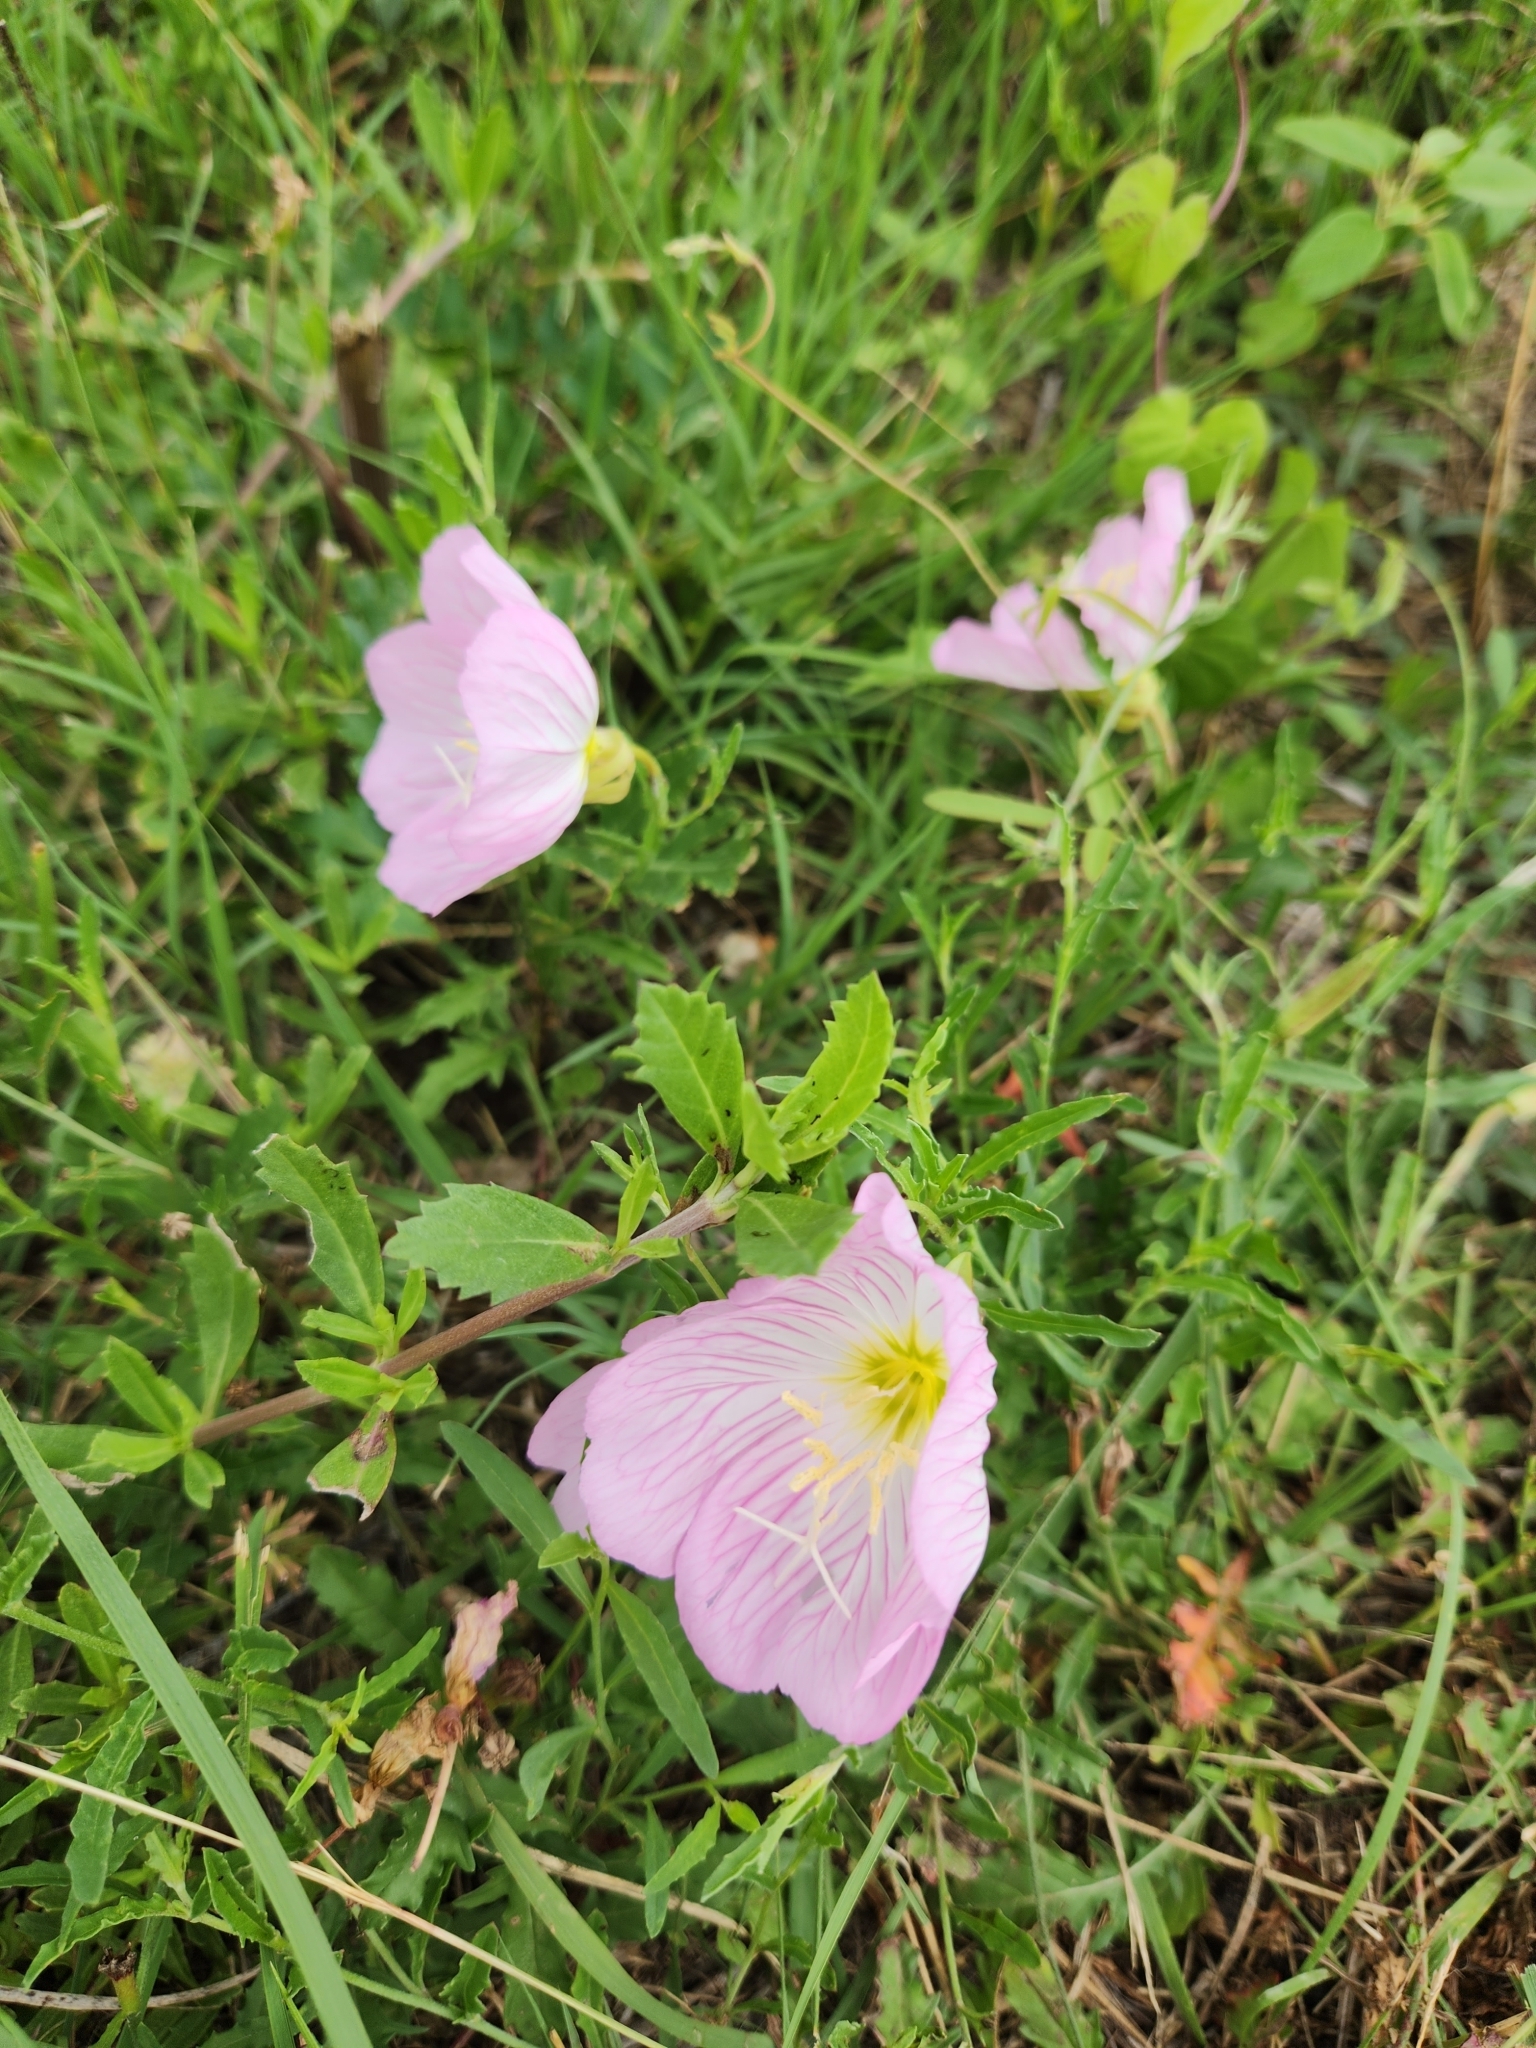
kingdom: Plantae
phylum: Tracheophyta
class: Magnoliopsida
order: Myrtales
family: Onagraceae
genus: Oenothera
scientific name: Oenothera speciosa
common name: White evening-primrose
